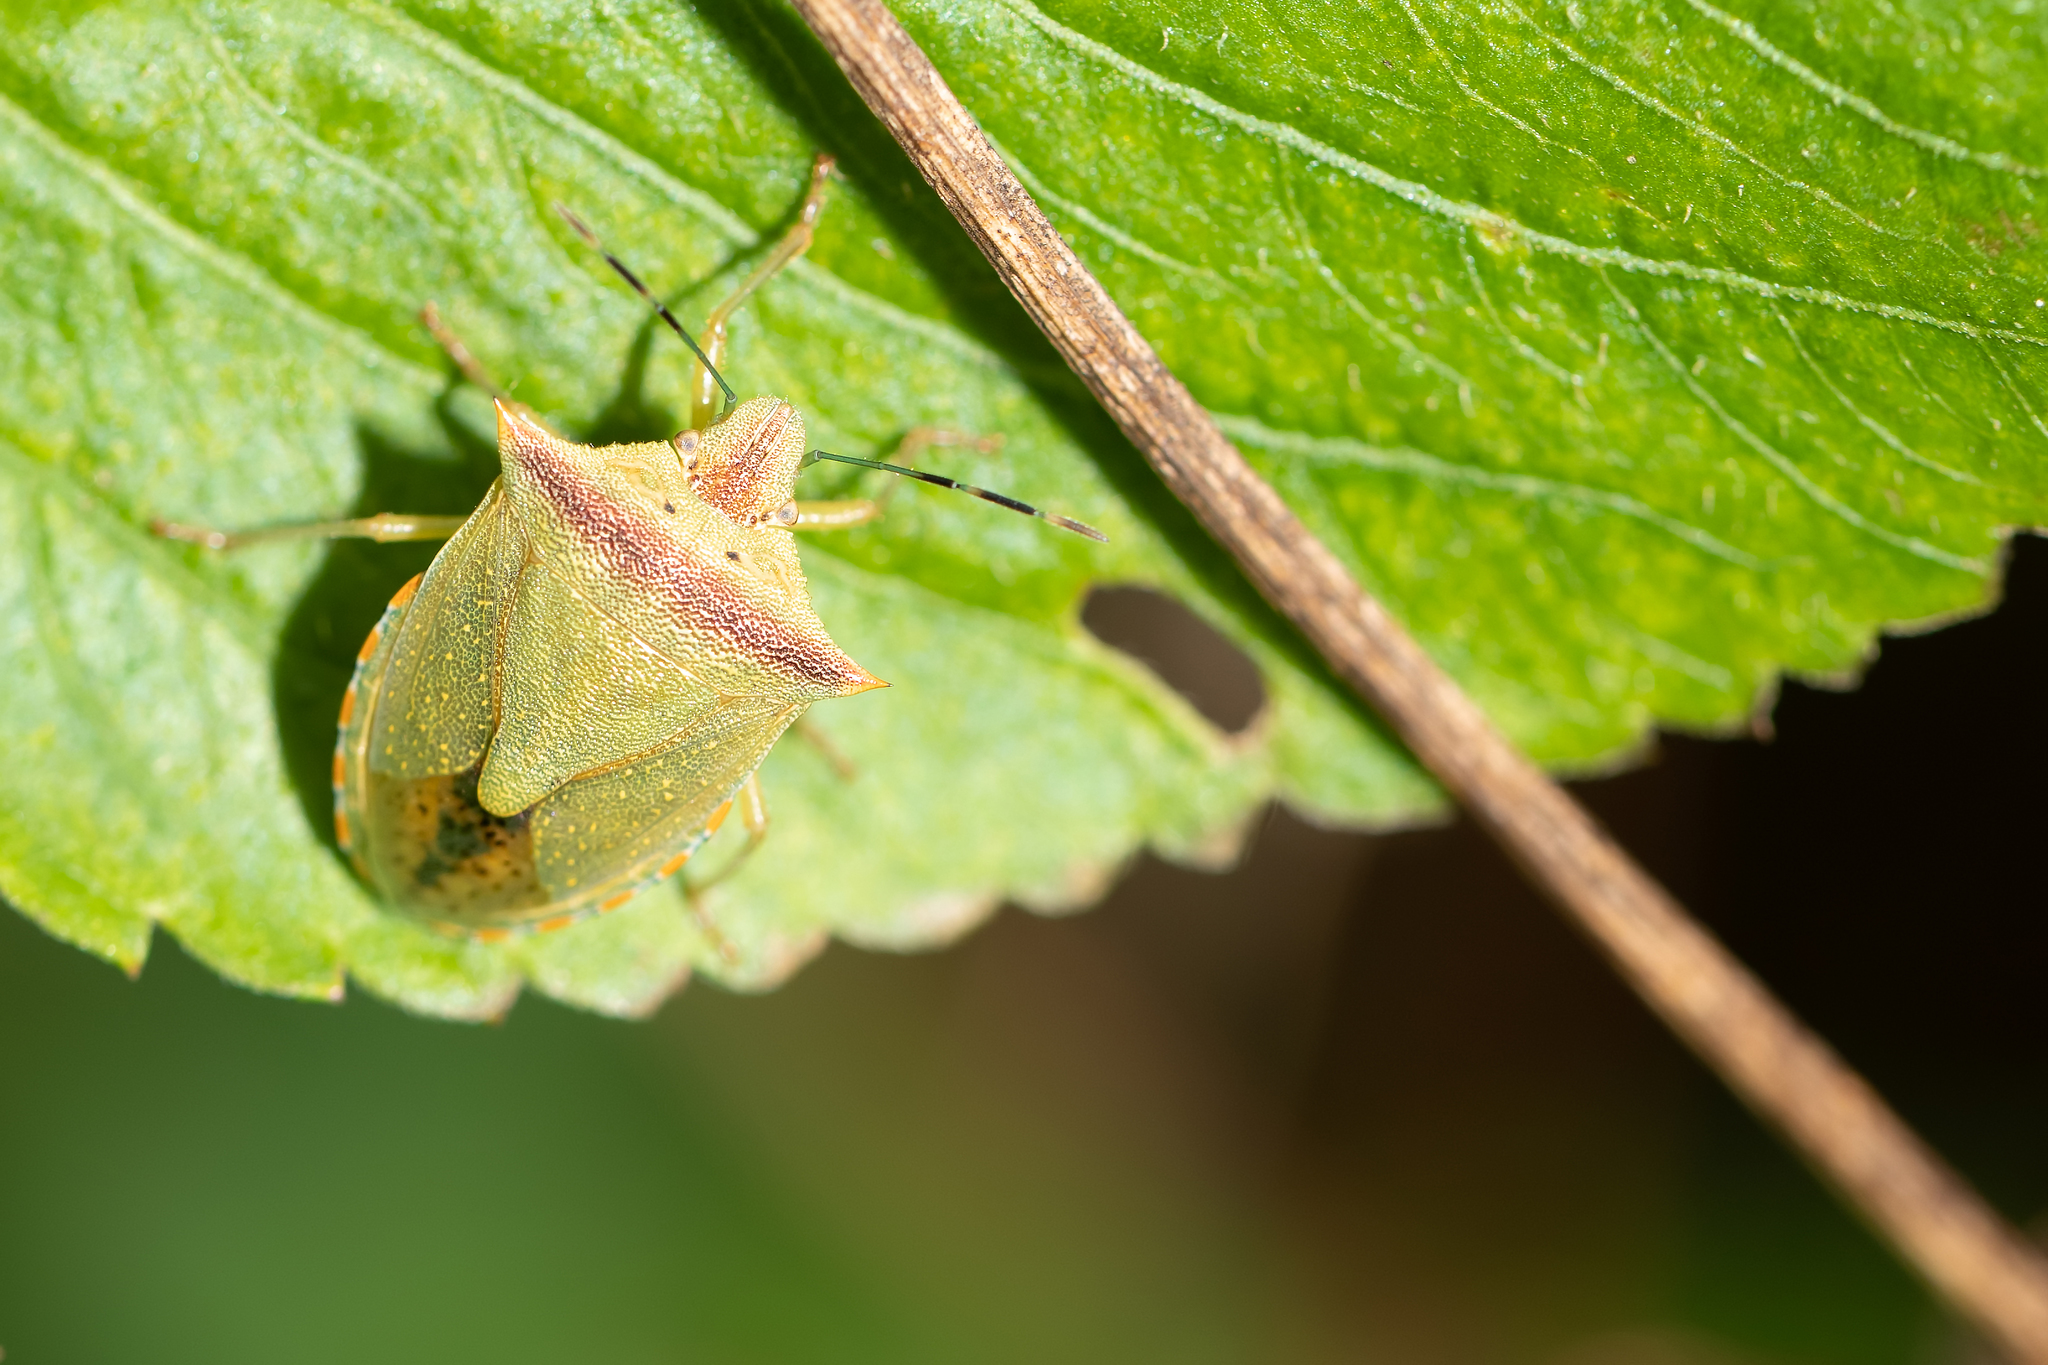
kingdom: Animalia
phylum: Arthropoda
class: Insecta
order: Hemiptera
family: Pentatomidae
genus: Thyanta
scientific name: Thyanta perditor
